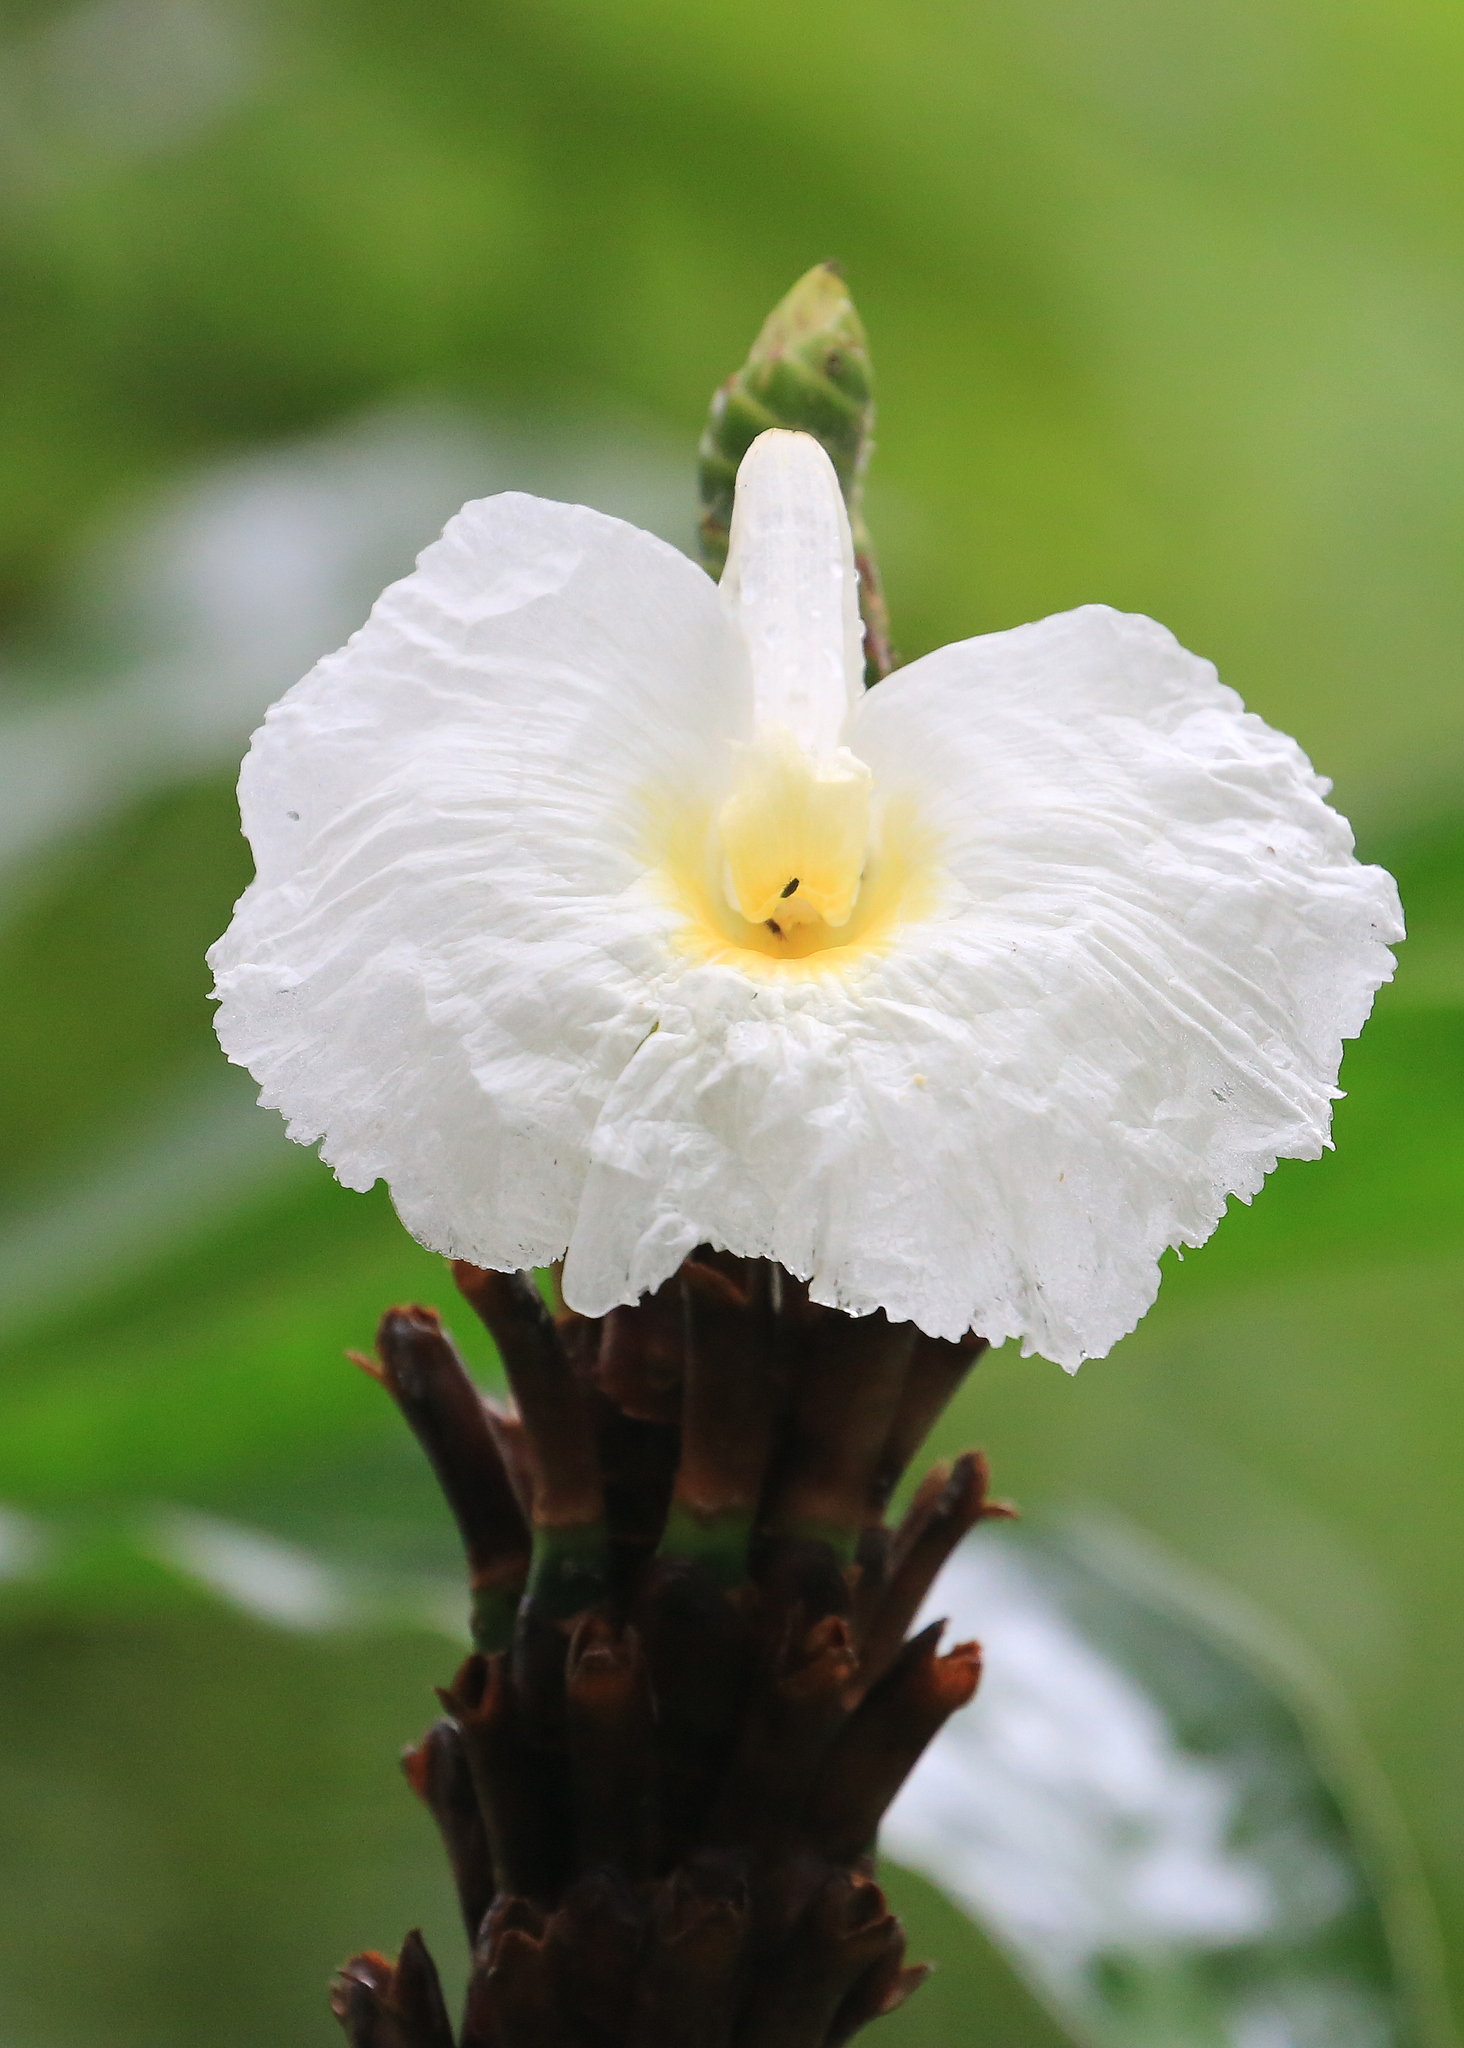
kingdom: Plantae
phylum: Tracheophyta
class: Liliopsida
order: Zingiberales
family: Costaceae
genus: Dimerocostus
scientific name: Dimerocostus strobilaceus
